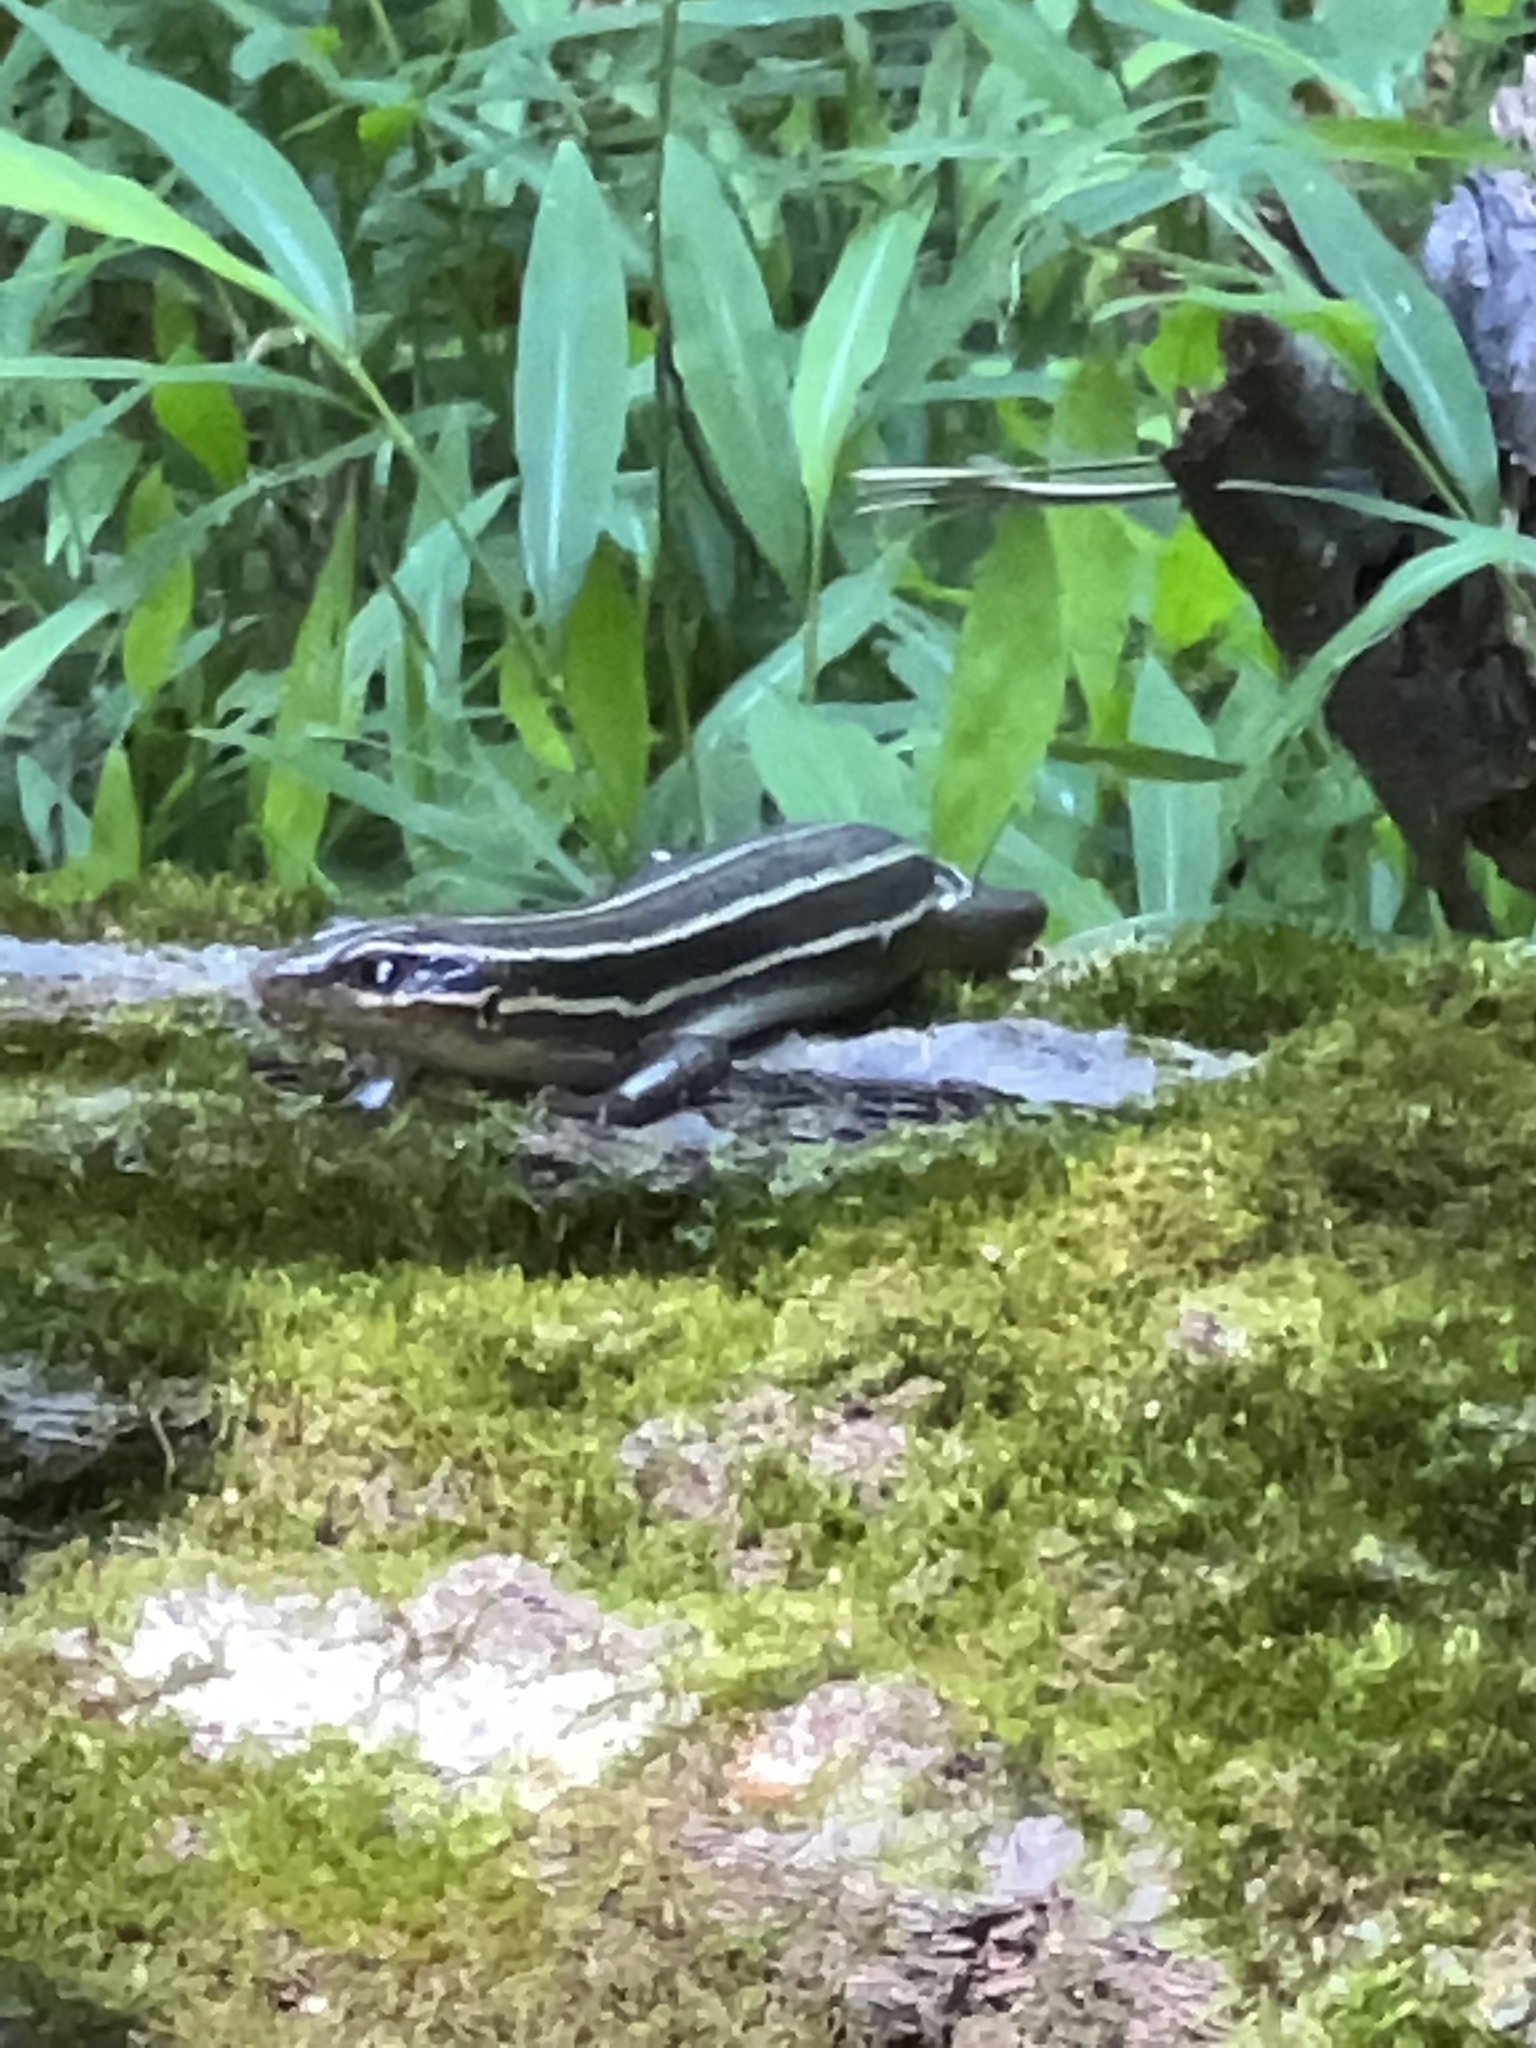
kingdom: Animalia
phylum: Chordata
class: Squamata
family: Scincidae
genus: Plestiodon
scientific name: Plestiodon laticeps
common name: Broadhead skink
